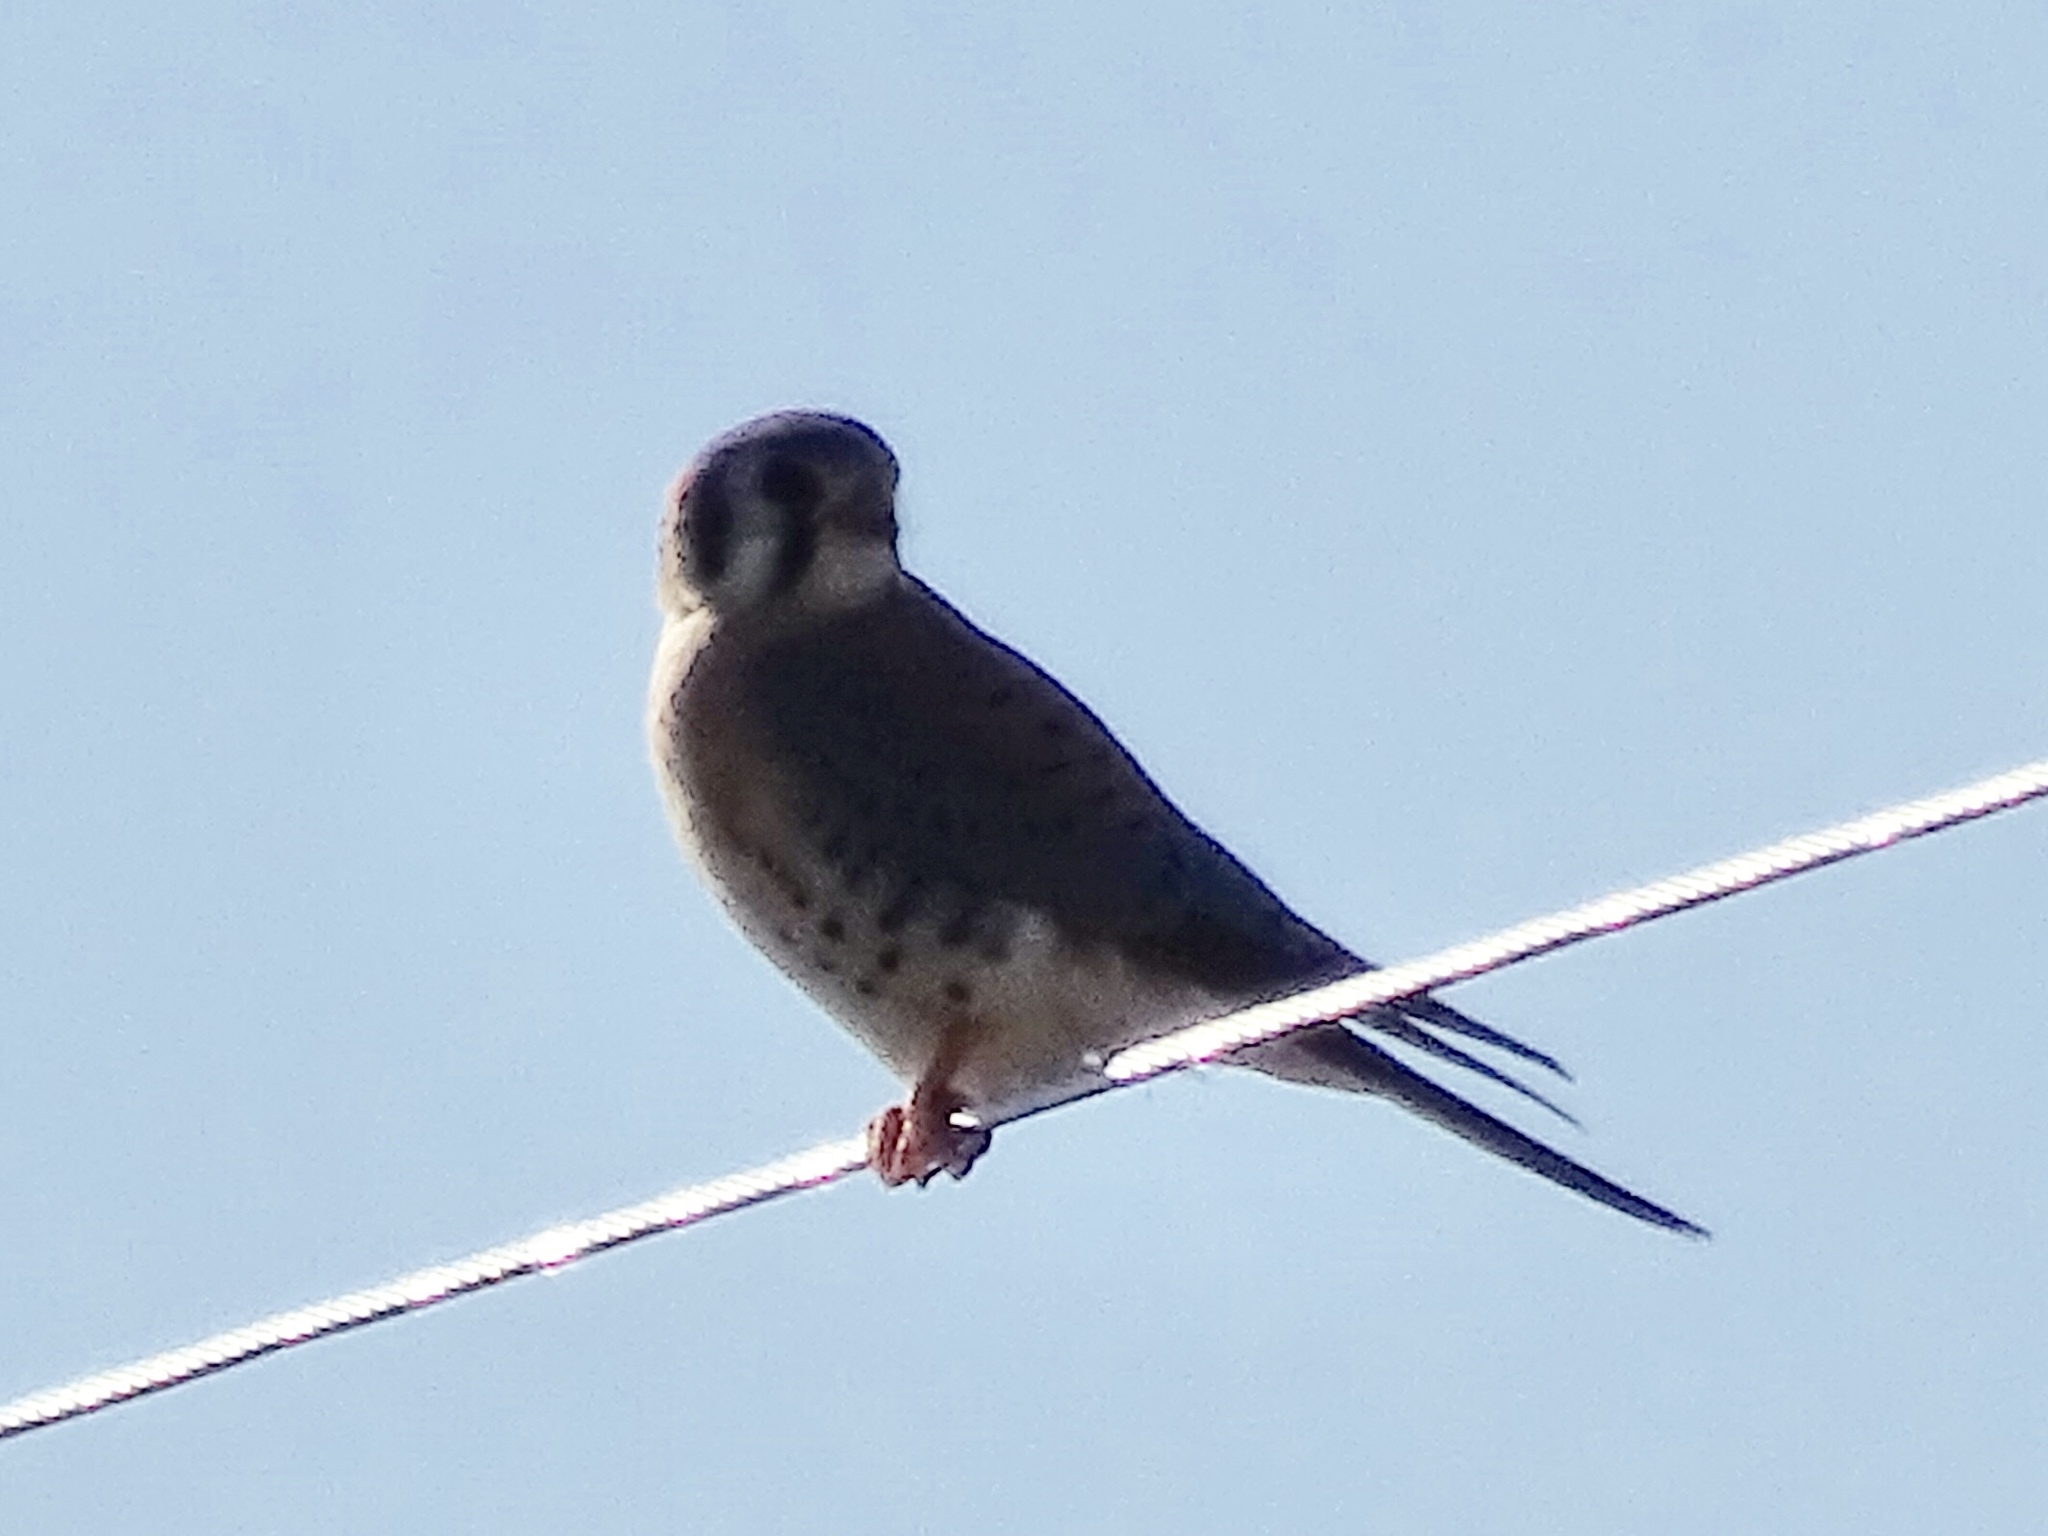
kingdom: Animalia
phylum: Chordata
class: Aves
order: Falconiformes
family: Falconidae
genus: Falco
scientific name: Falco sparverius
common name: American kestrel
